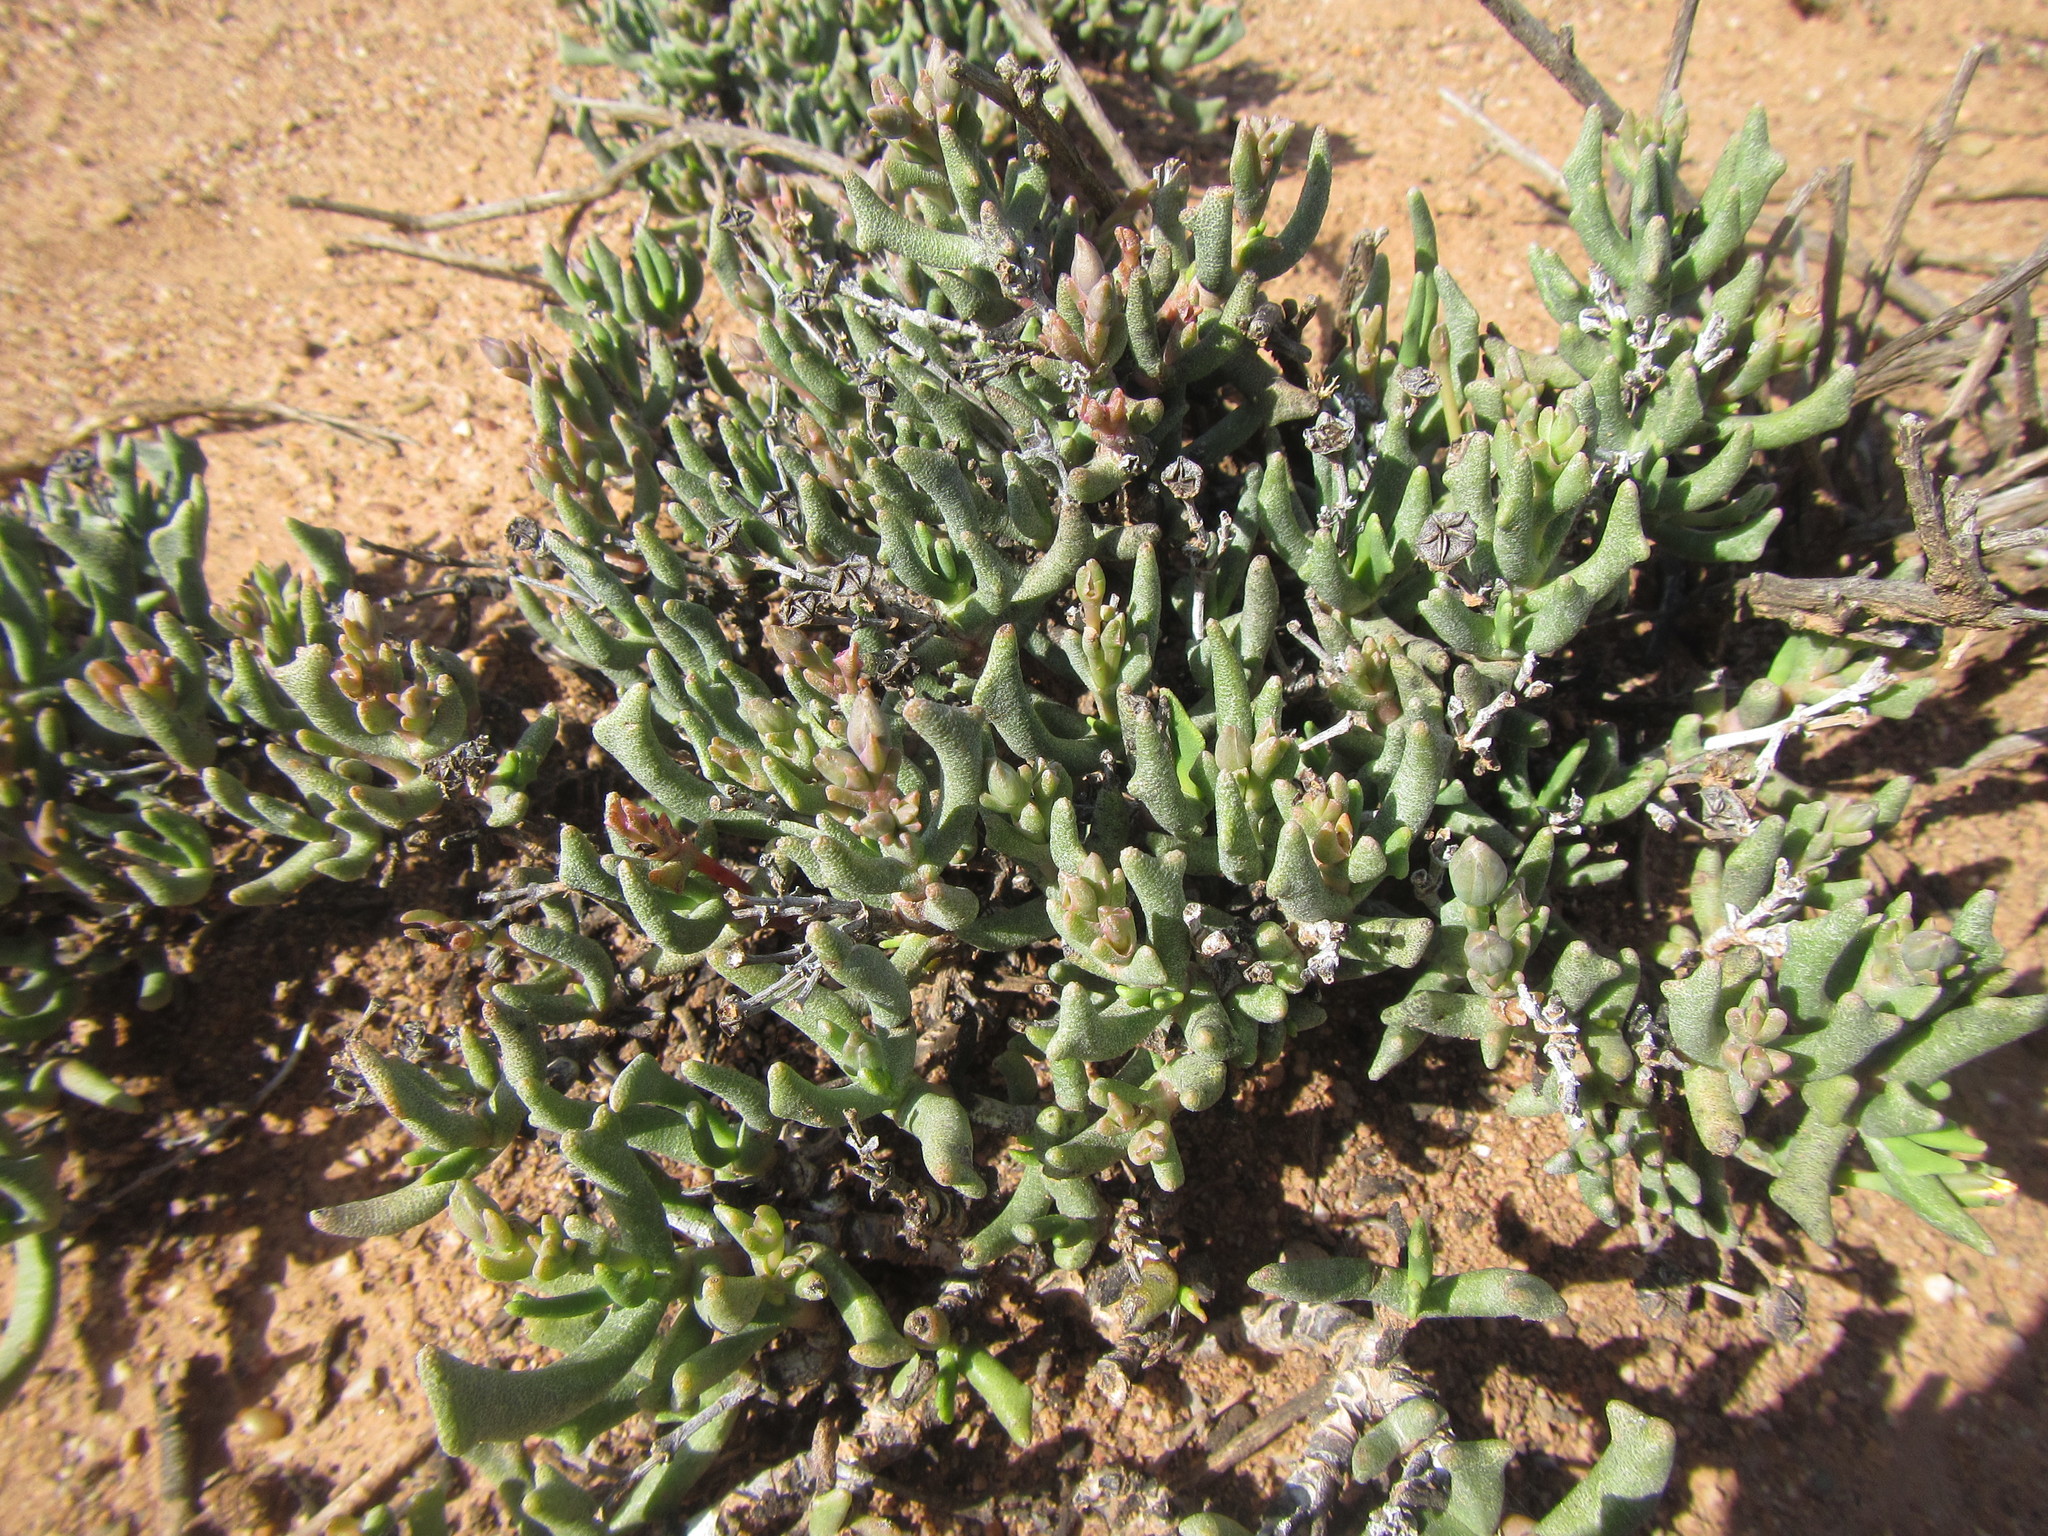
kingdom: Plantae
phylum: Tracheophyta
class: Magnoliopsida
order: Caryophyllales
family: Aizoaceae
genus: Dracophilus
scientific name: Dracophilus Rhombophyllum dolabriforme
